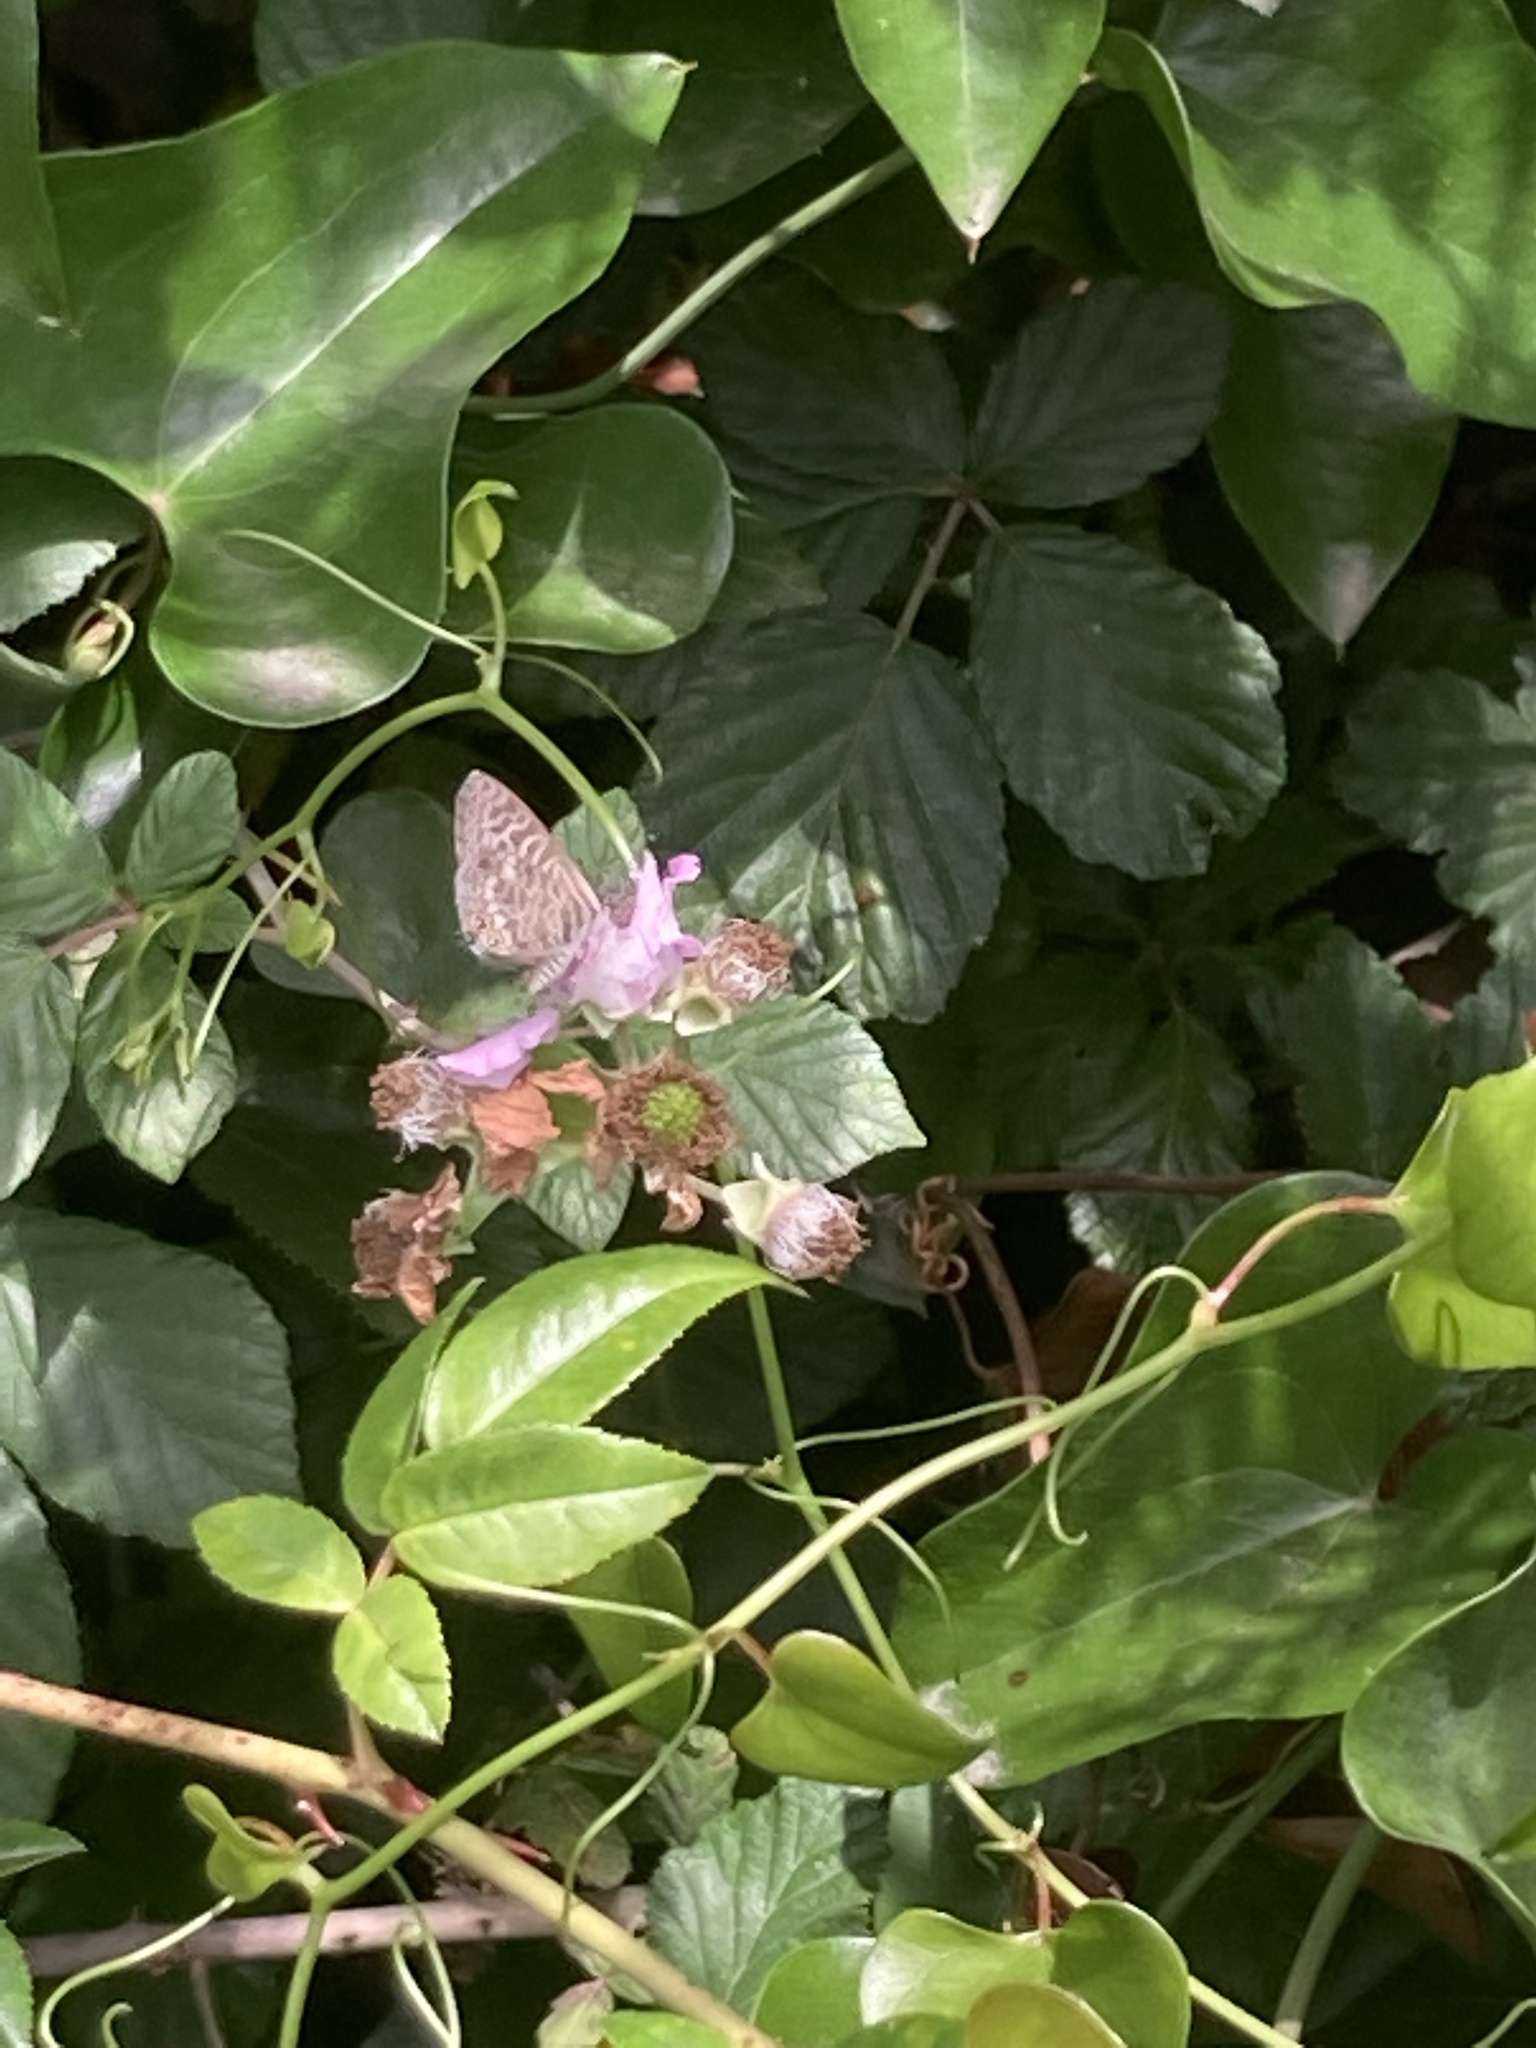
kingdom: Animalia
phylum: Arthropoda
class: Insecta
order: Lepidoptera
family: Lycaenidae
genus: Leptotes
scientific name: Leptotes pirithous
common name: Lang's short-tailed blue
